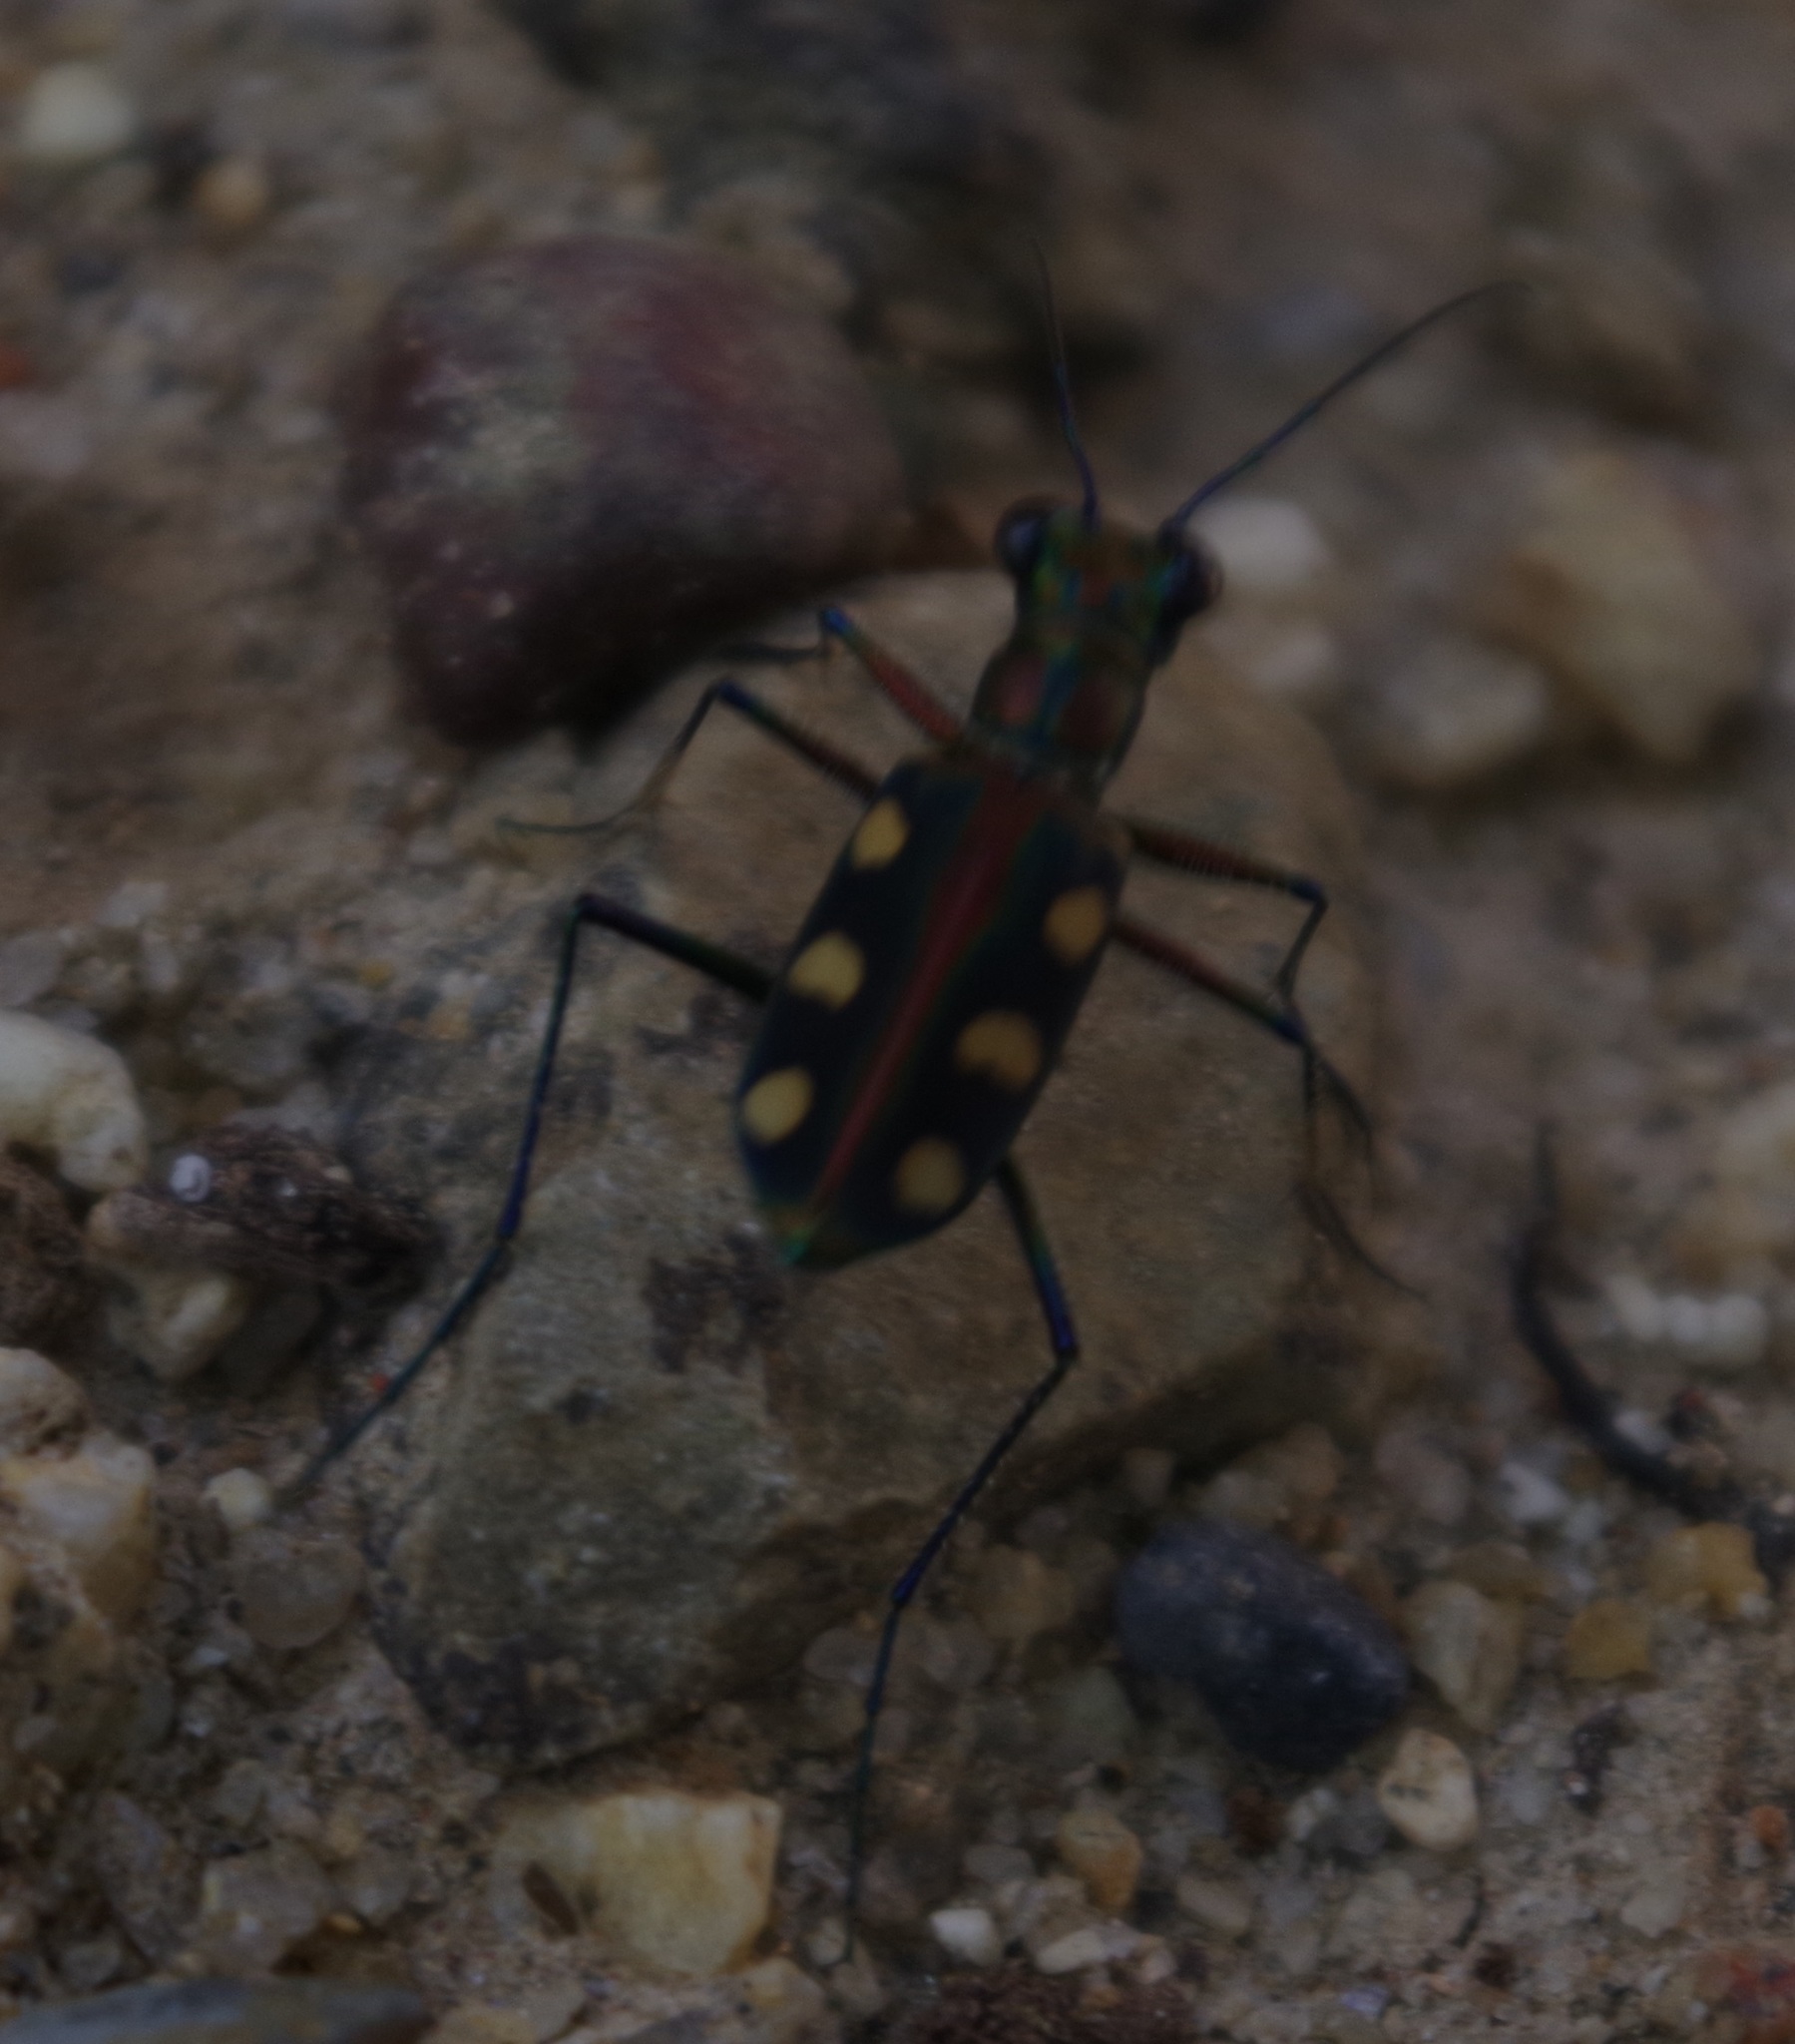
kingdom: Animalia
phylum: Arthropoda
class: Insecta
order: Coleoptera
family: Carabidae
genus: Cicindela
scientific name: Cicindela aurulenta
